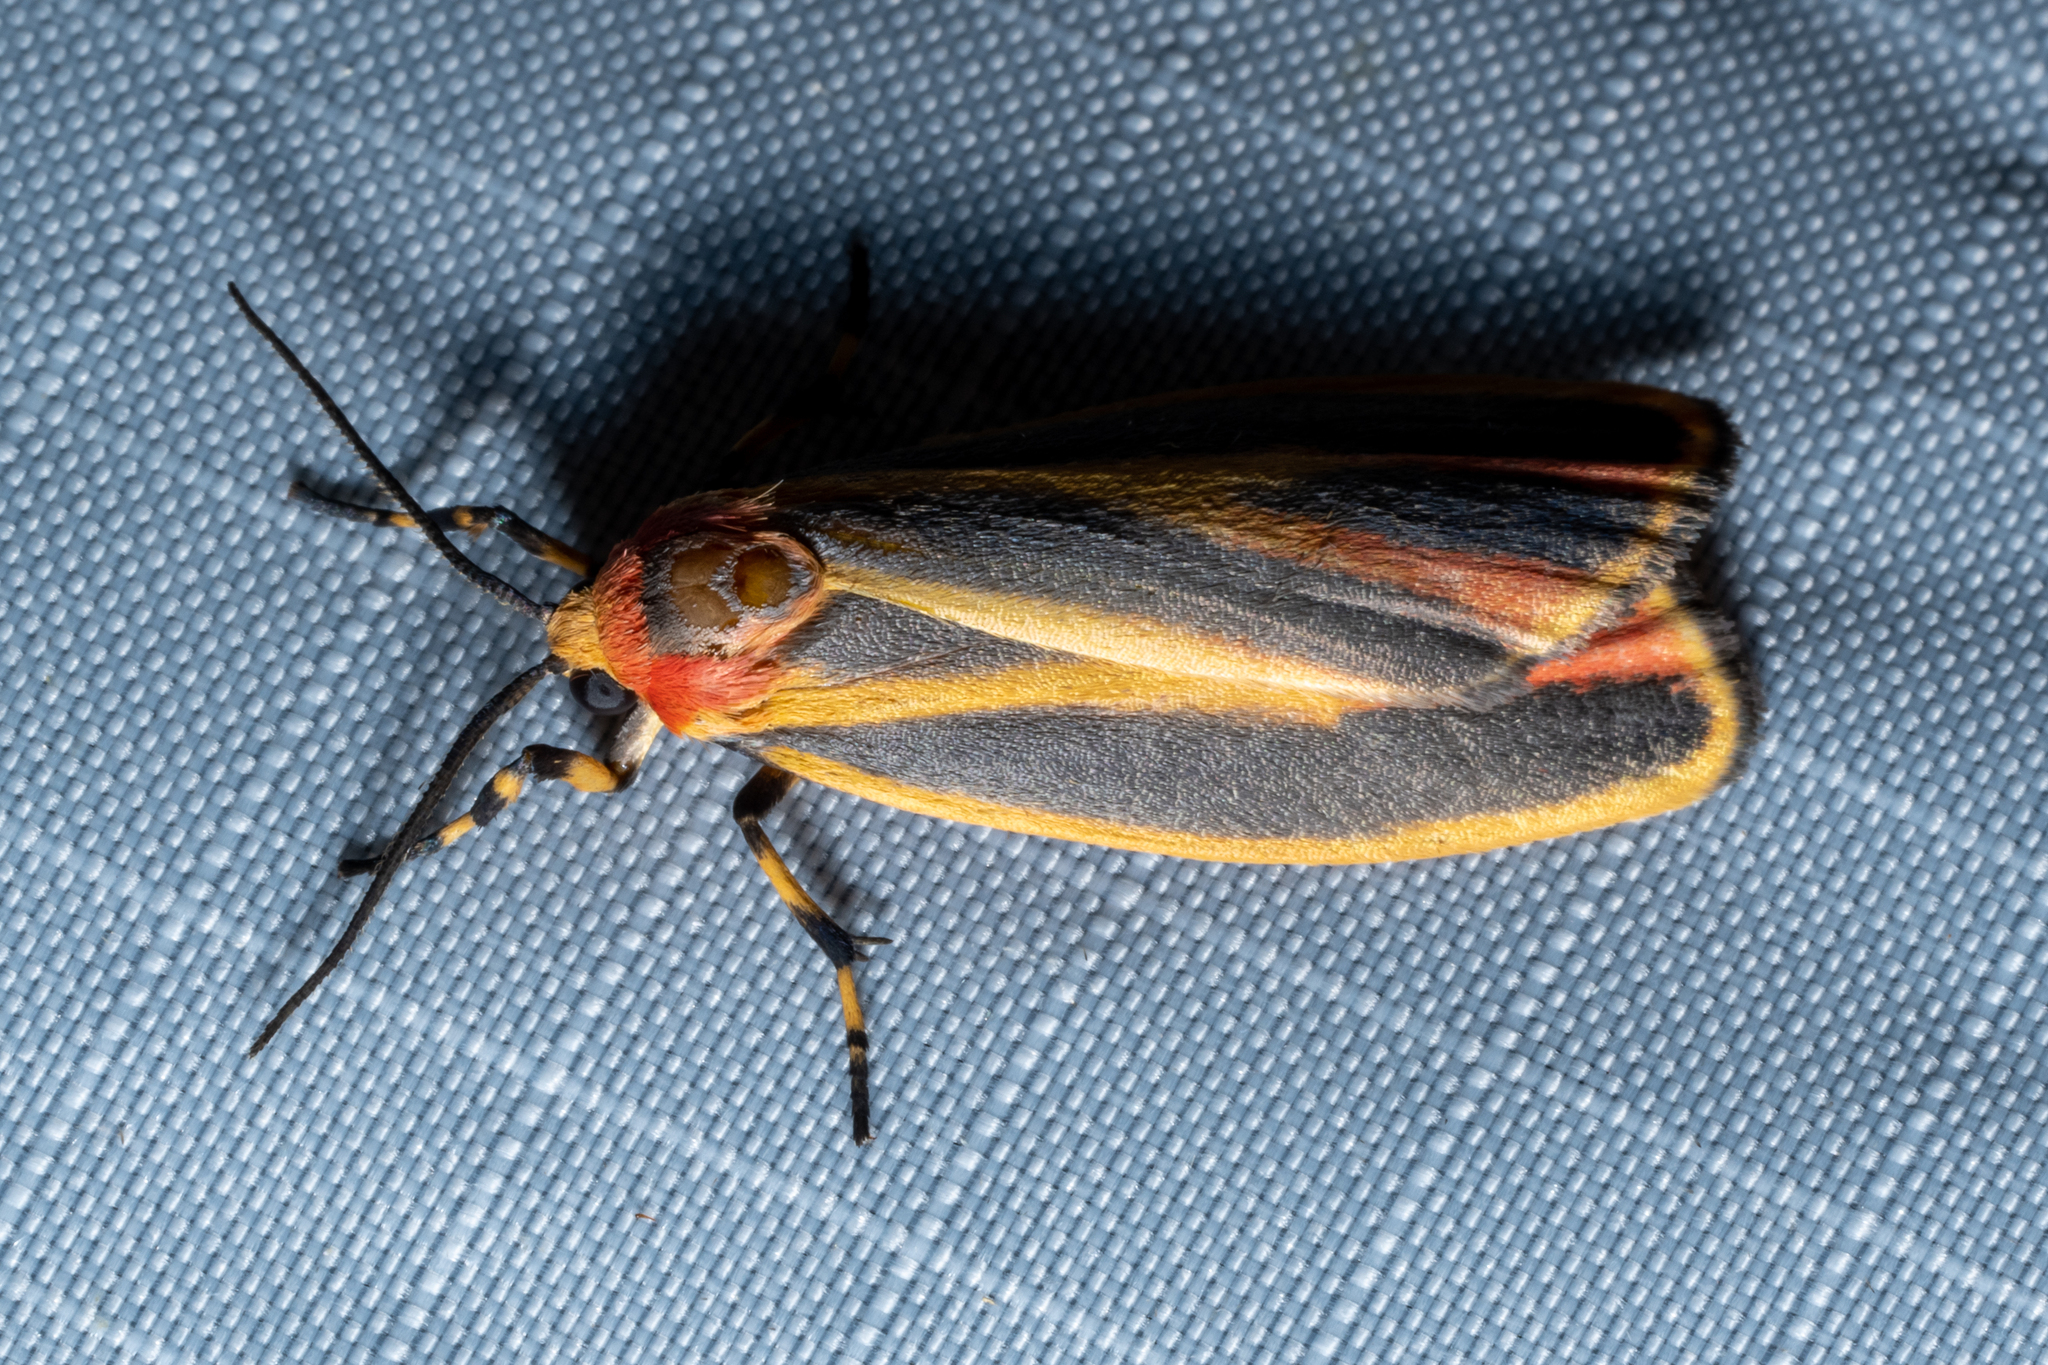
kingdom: Animalia
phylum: Arthropoda
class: Insecta
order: Lepidoptera
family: Erebidae
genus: Hypoprepia
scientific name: Hypoprepia fucosa
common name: Painted lichen moth
